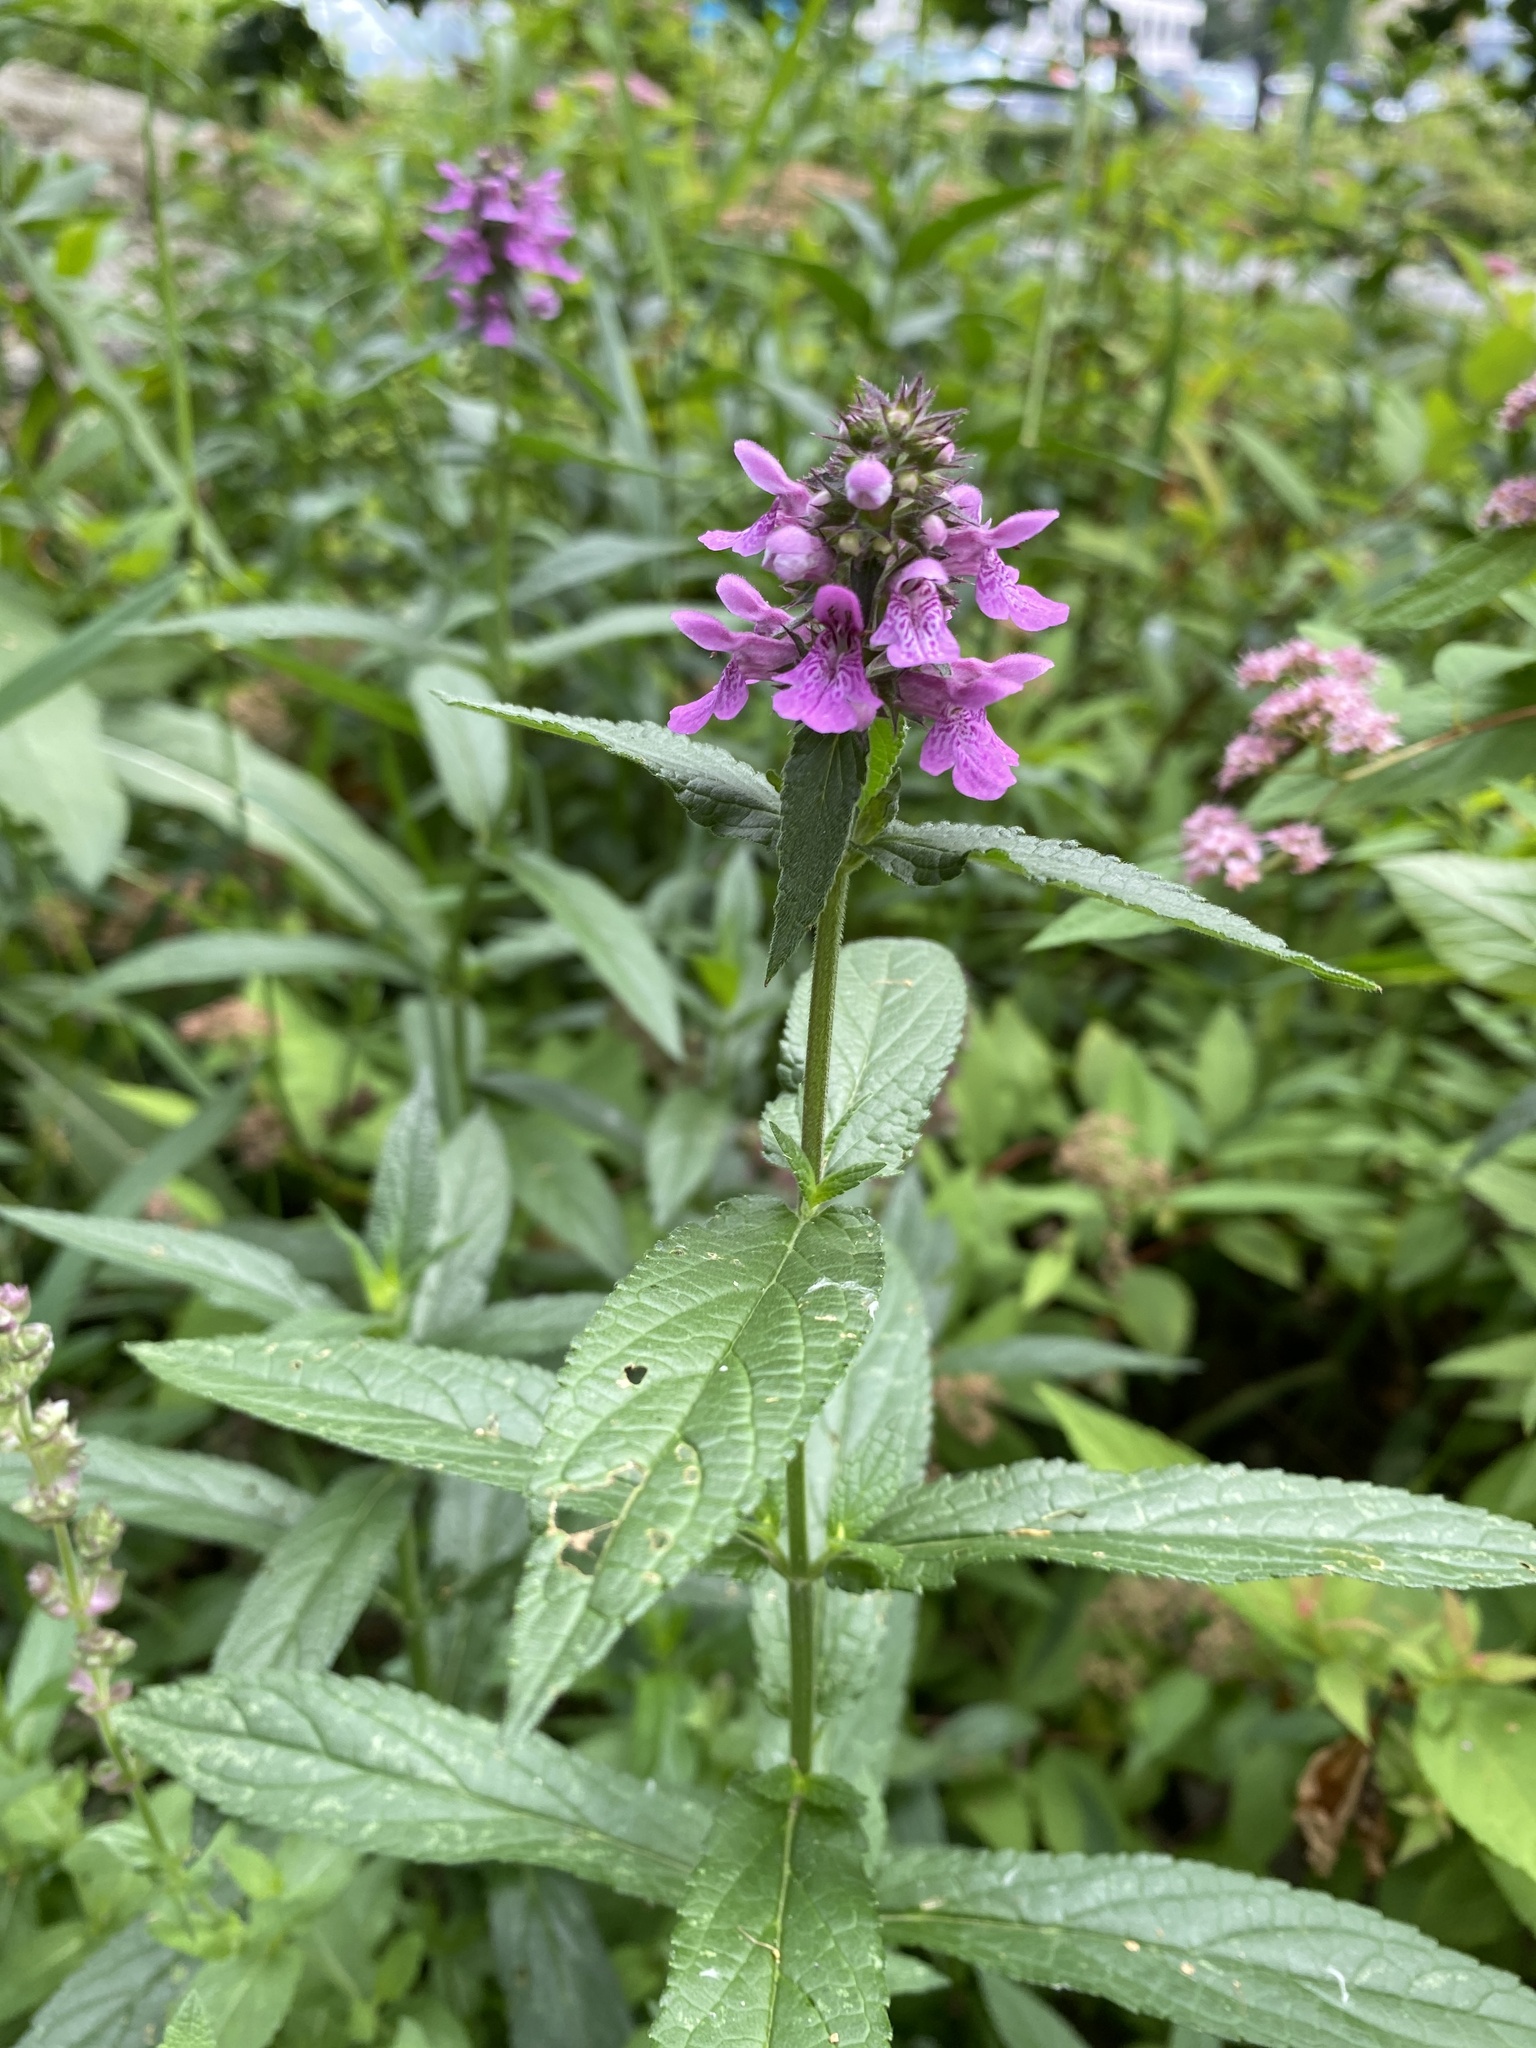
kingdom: Plantae
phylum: Tracheophyta
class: Magnoliopsida
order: Lamiales
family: Lamiaceae
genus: Stachys
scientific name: Stachys palustris
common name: Marsh woundwort
